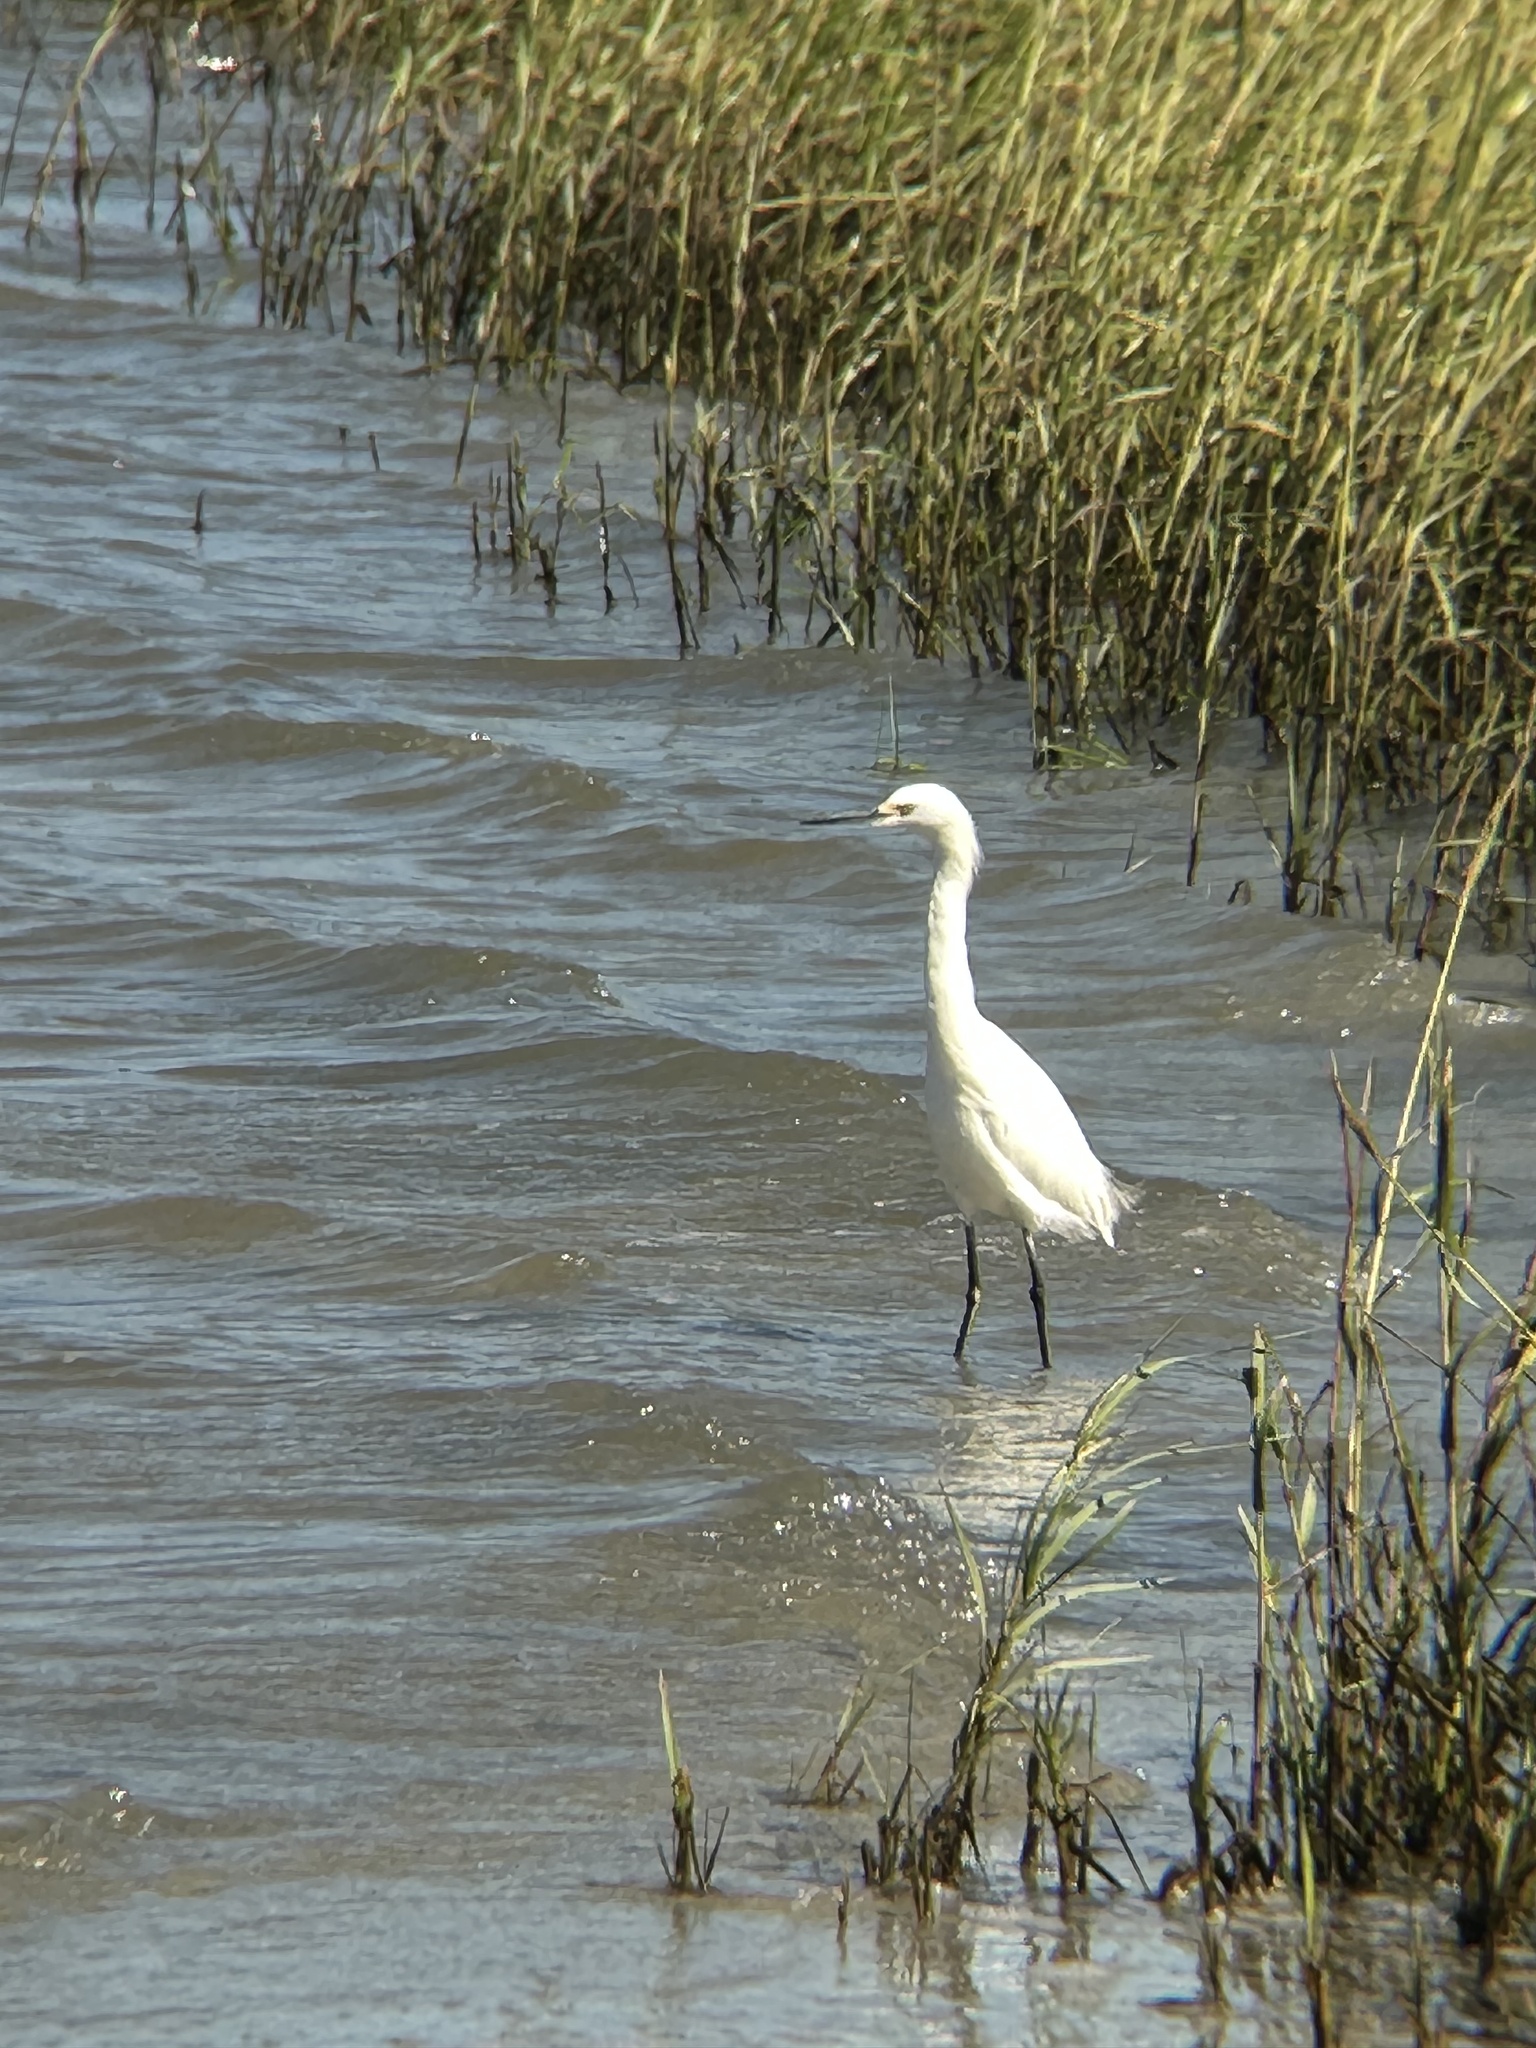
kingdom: Animalia
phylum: Chordata
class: Aves
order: Pelecaniformes
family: Ardeidae
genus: Egretta
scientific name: Egretta thula
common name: Snowy egret
